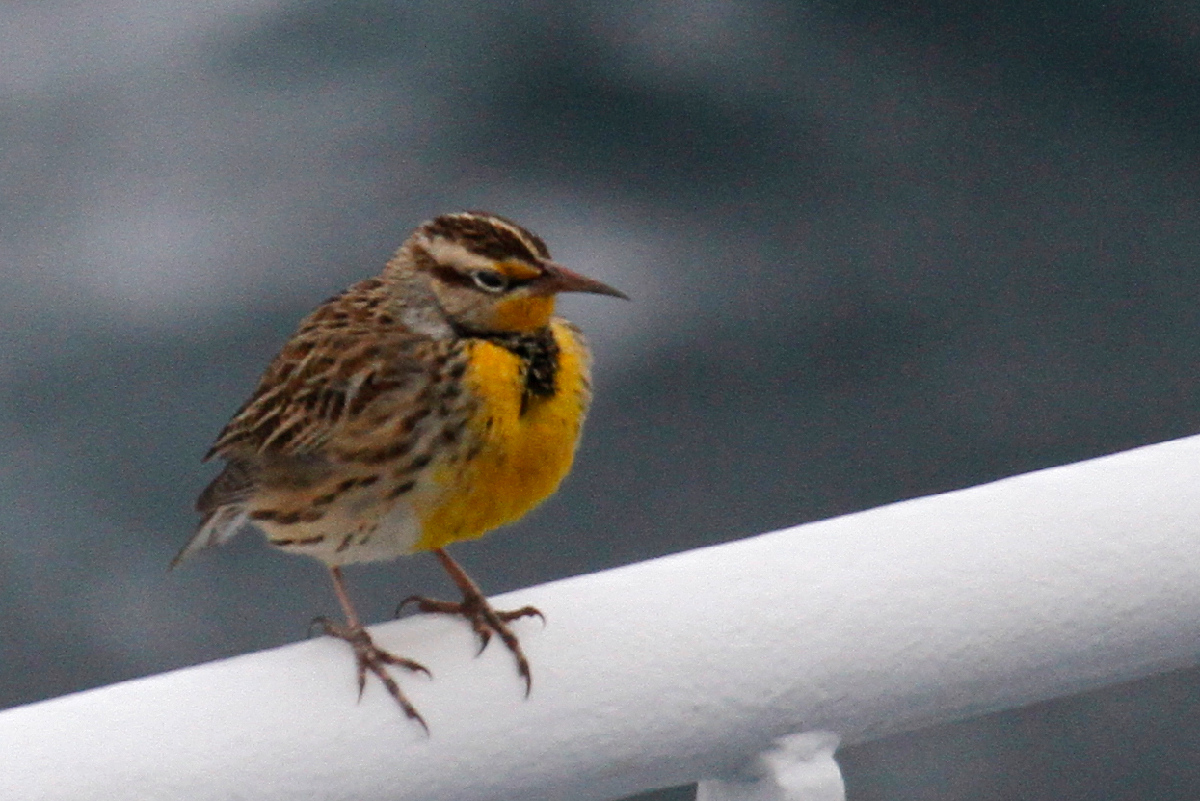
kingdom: Animalia
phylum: Chordata
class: Aves
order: Passeriformes
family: Icteridae
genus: Sturnella
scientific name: Sturnella neglecta
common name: Western meadowlark
